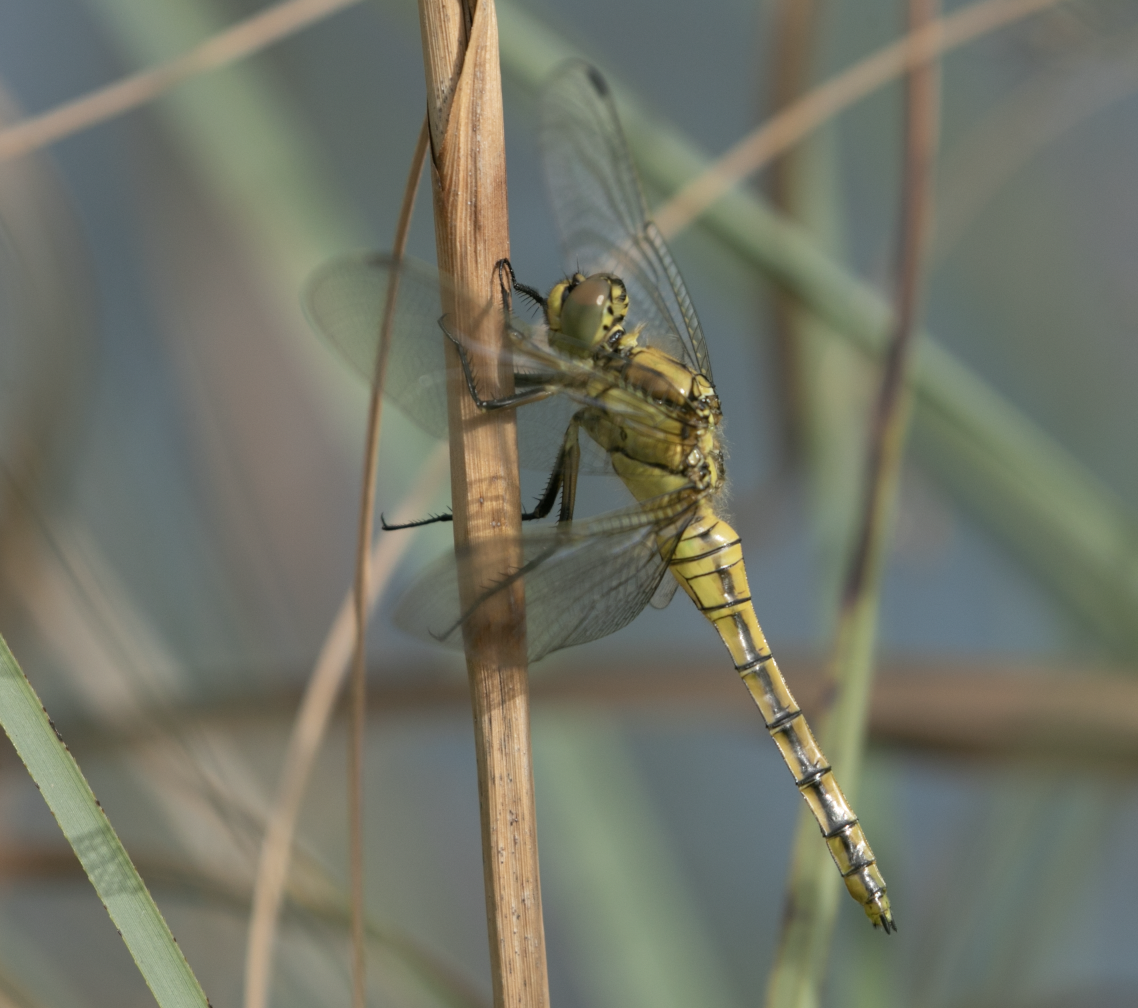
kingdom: Animalia
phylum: Arthropoda
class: Insecta
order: Odonata
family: Libellulidae
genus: Orthetrum
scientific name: Orthetrum cancellatum
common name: Black-tailed skimmer
